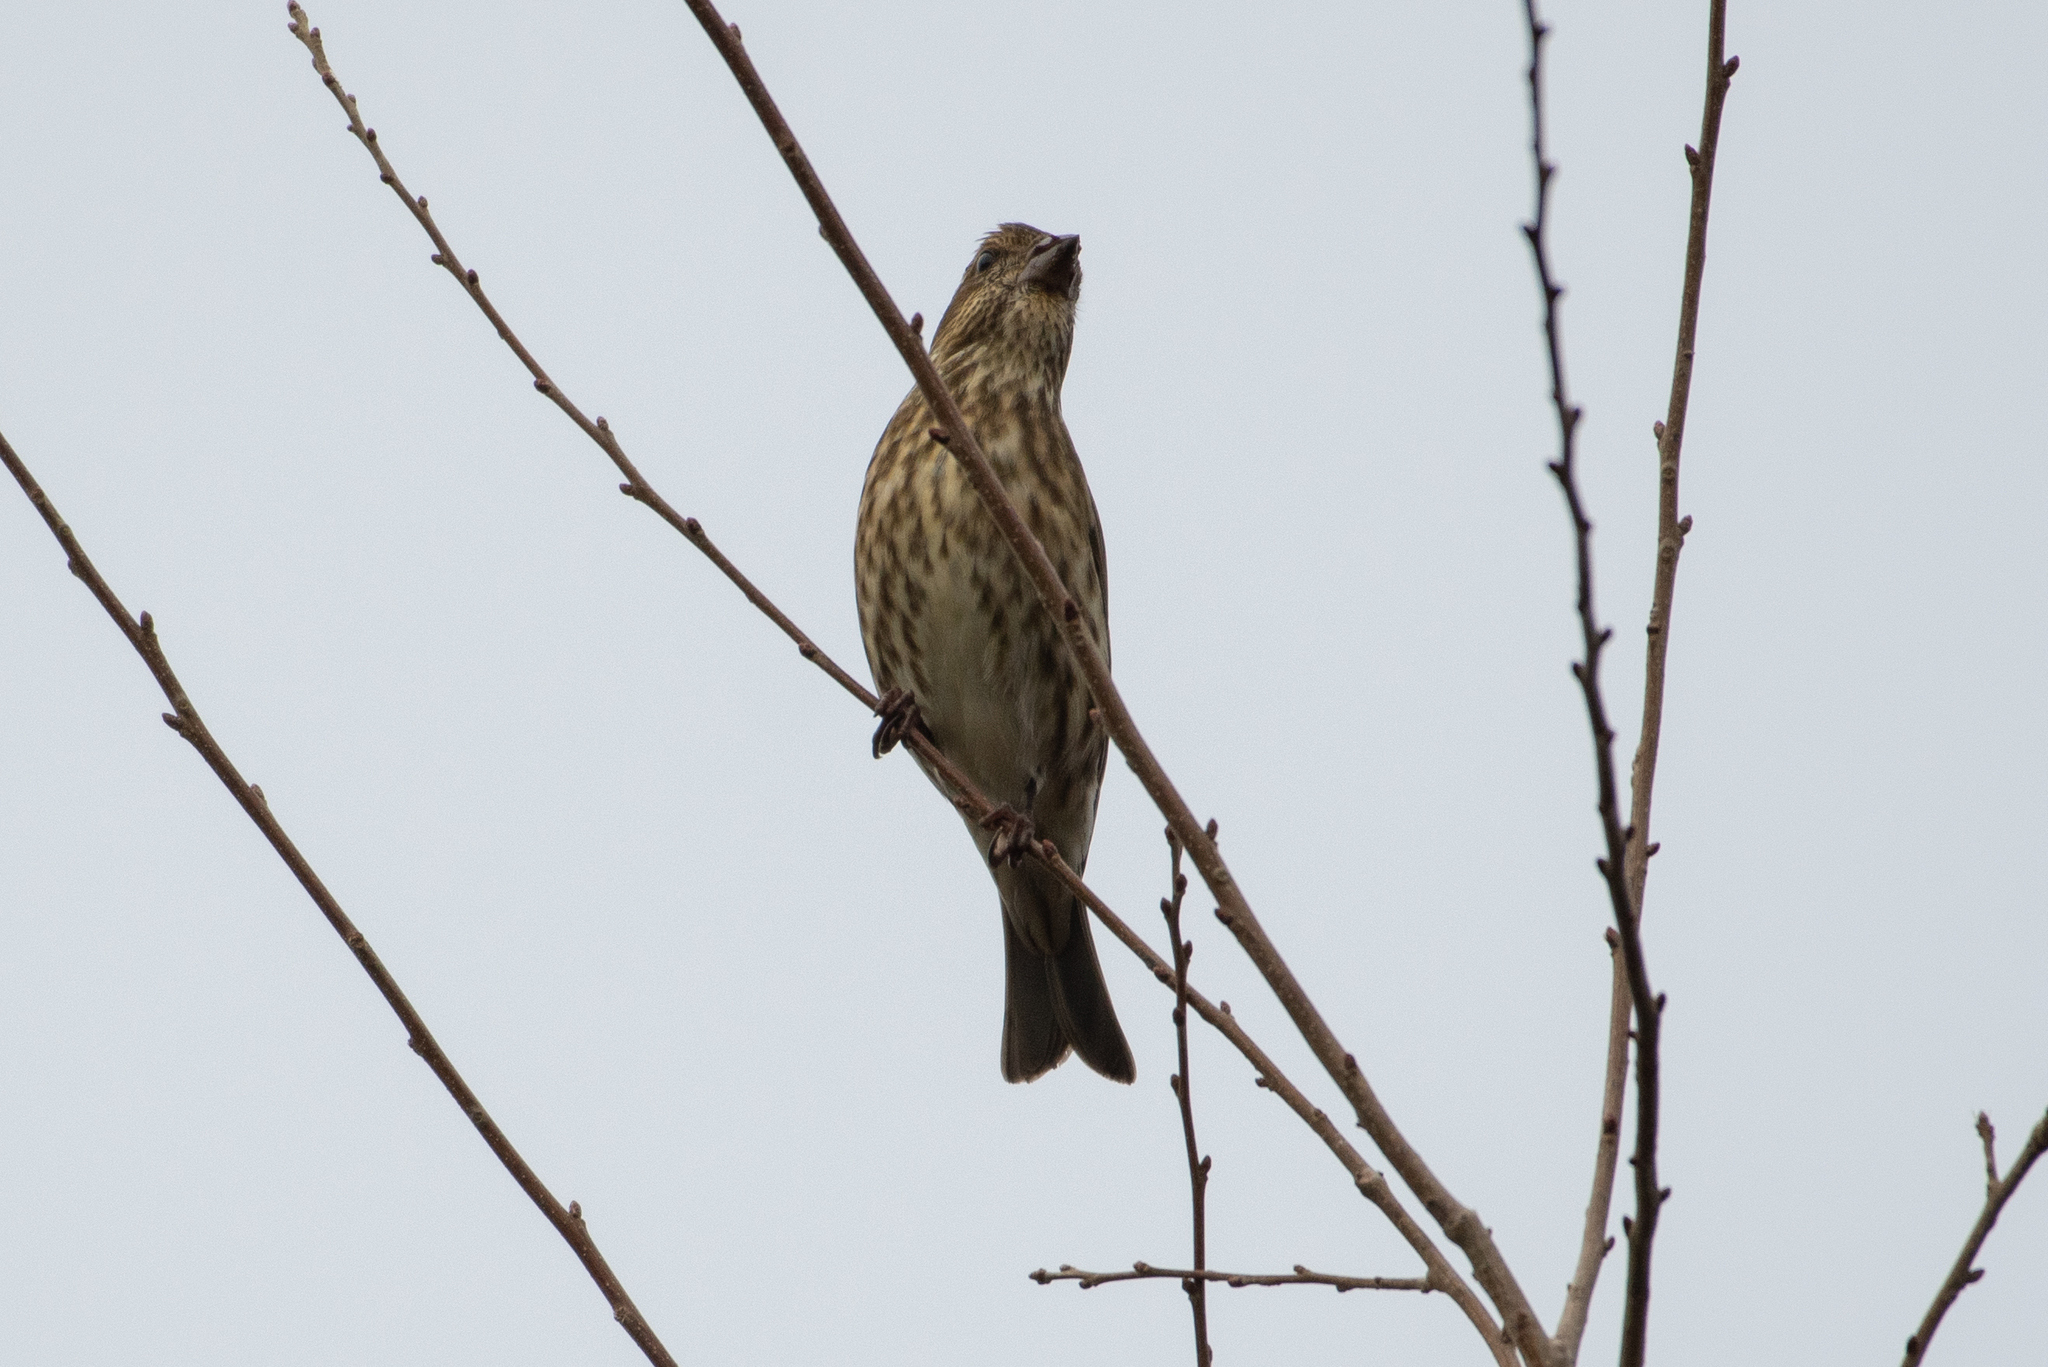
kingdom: Animalia
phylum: Chordata
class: Aves
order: Passeriformes
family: Fringillidae
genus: Haemorhous
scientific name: Haemorhous purpureus
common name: Purple finch
